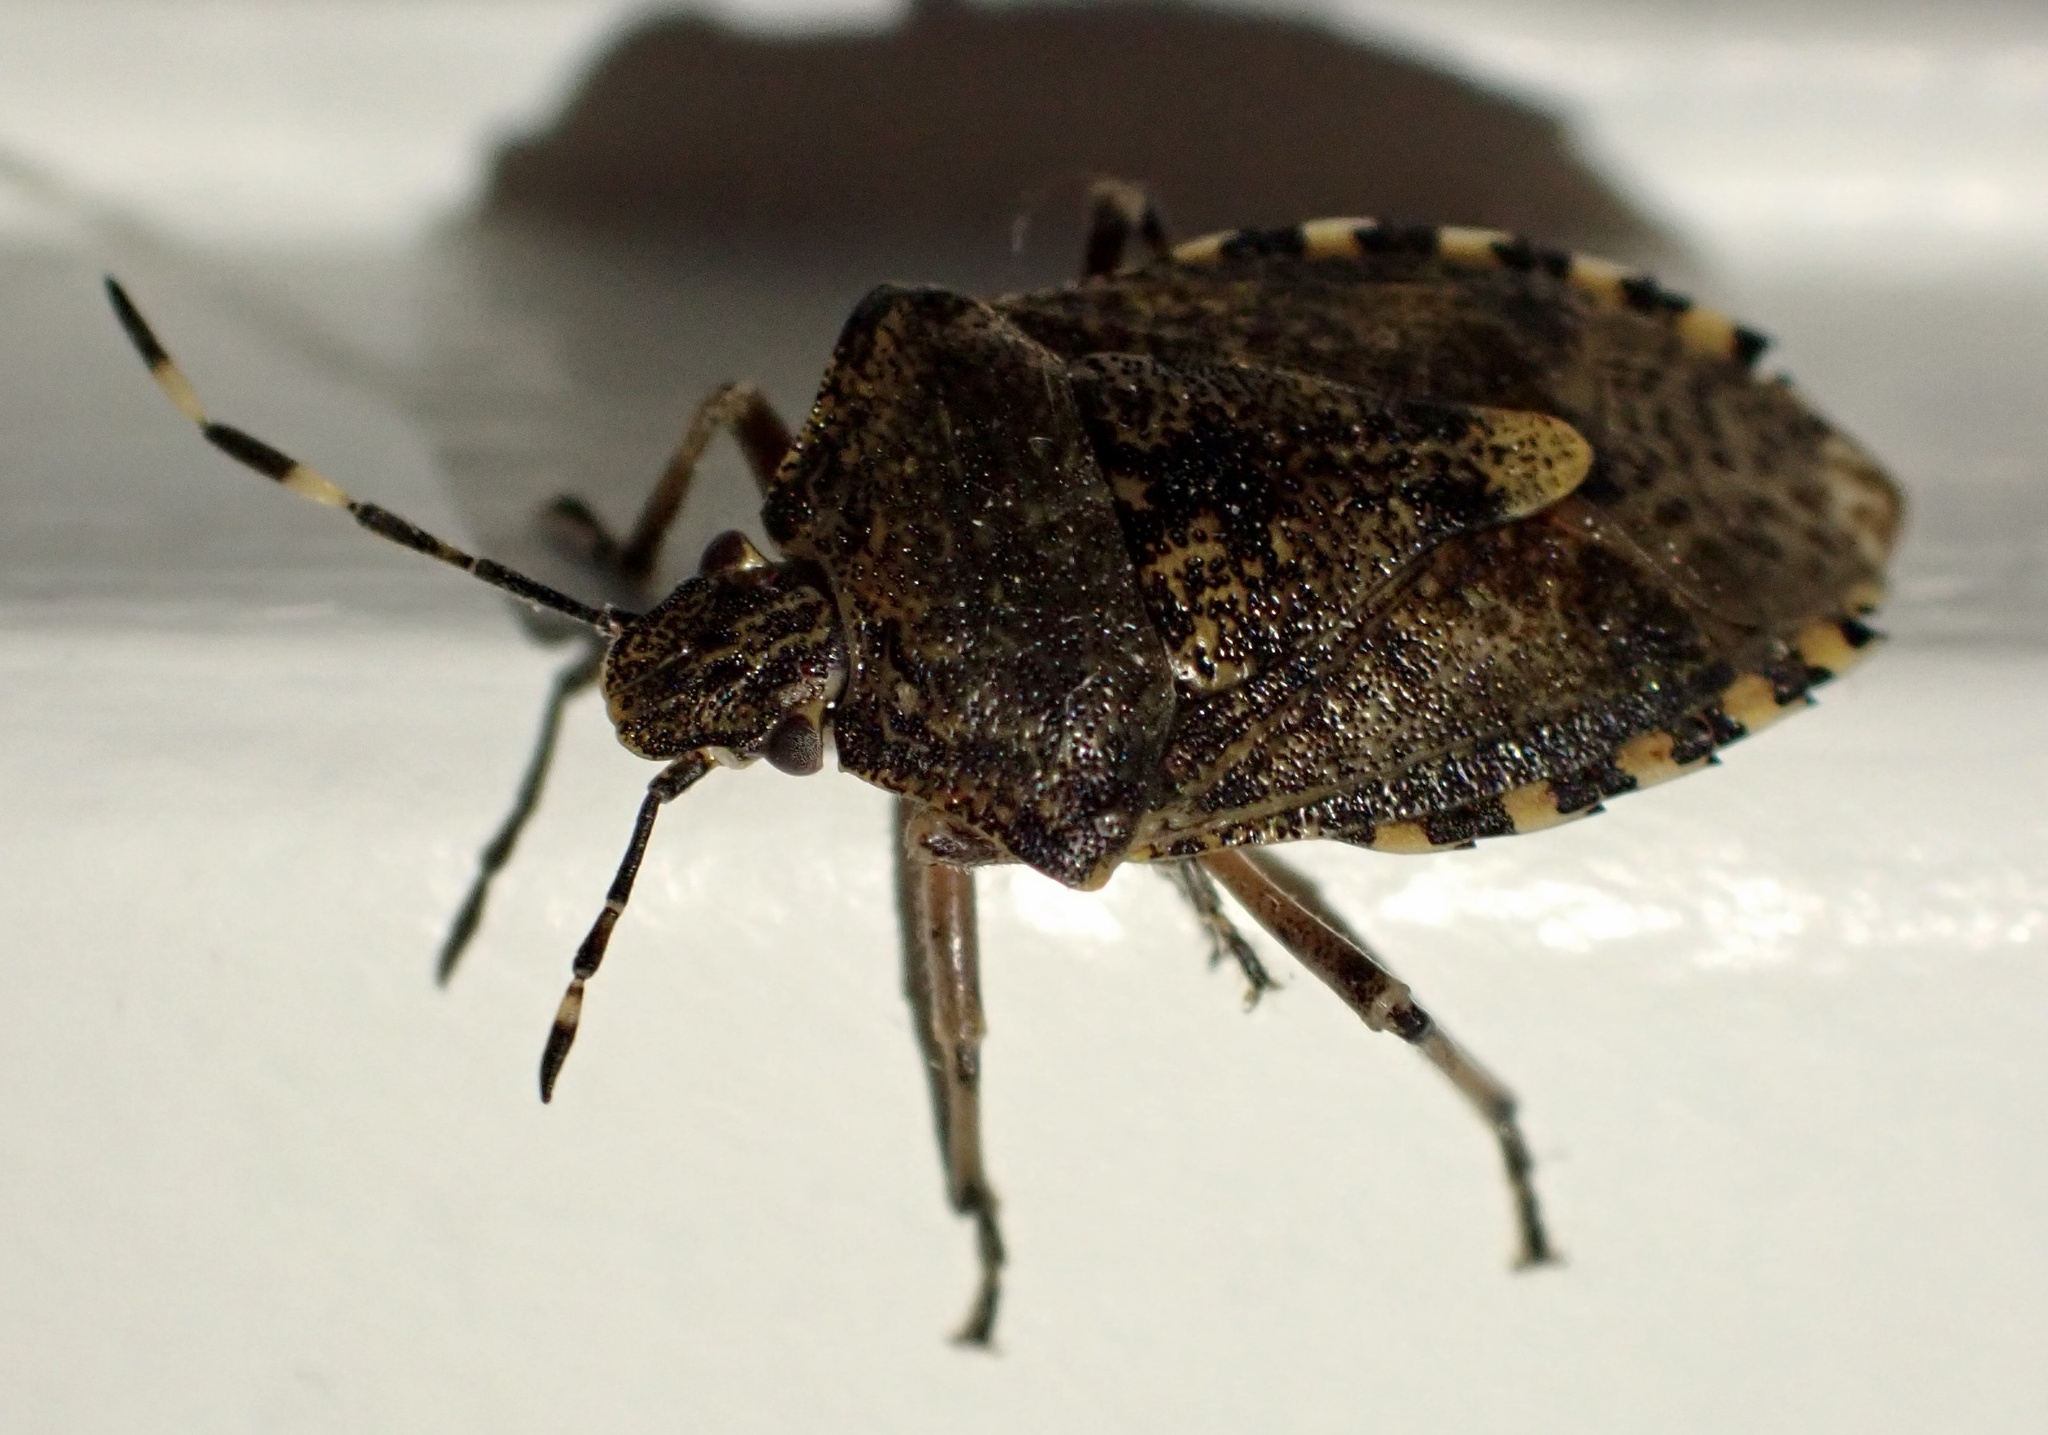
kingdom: Animalia
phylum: Arthropoda
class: Insecta
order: Hemiptera
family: Pentatomidae
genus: Rhaphigaster
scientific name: Rhaphigaster nebulosa
